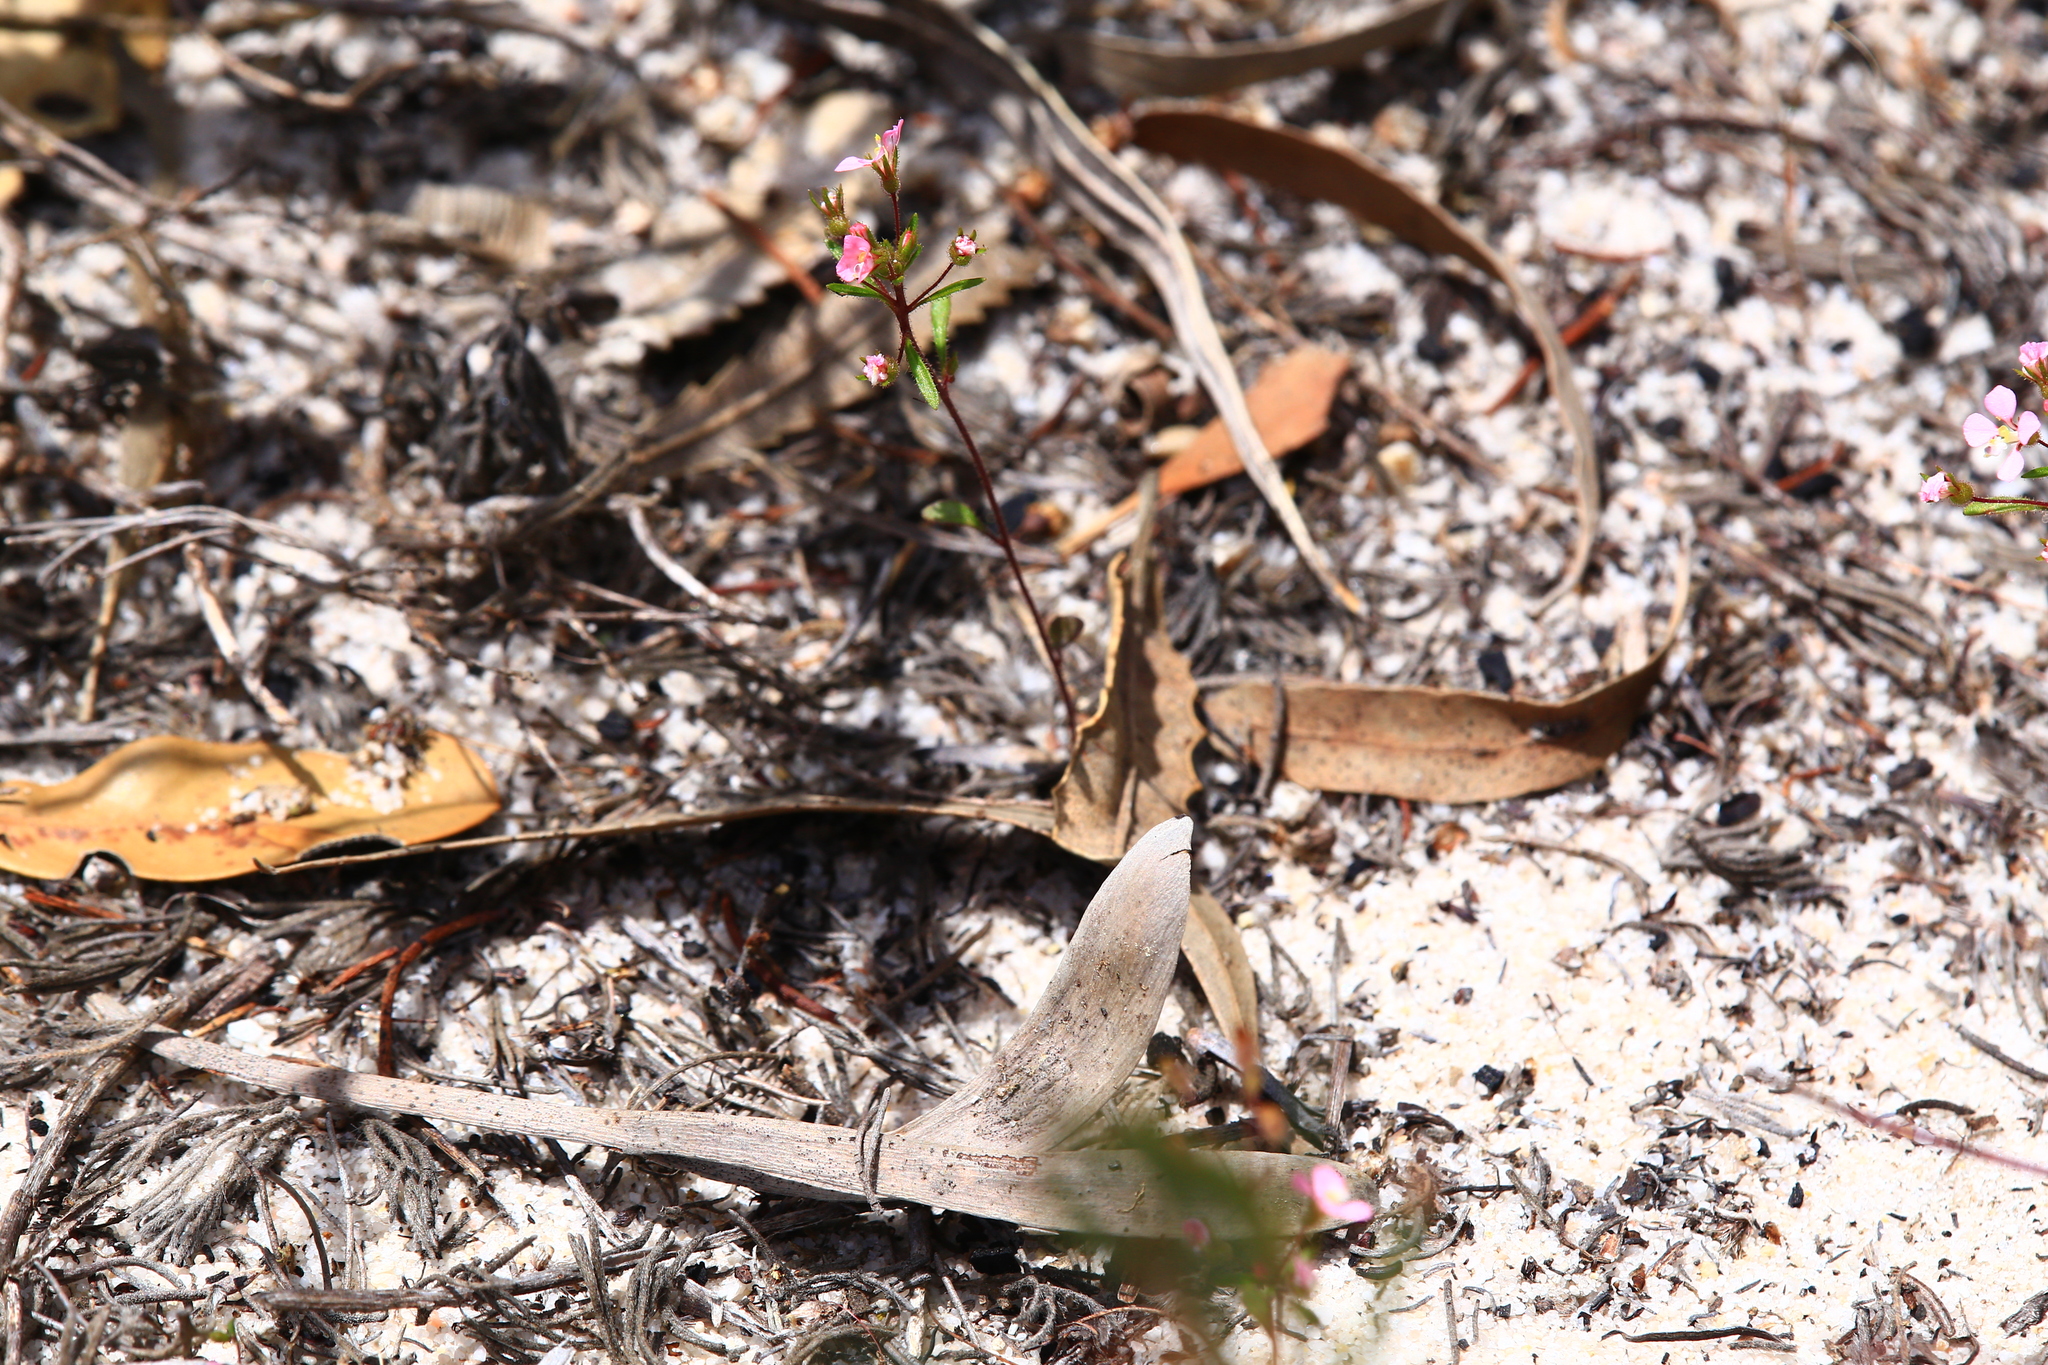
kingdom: Plantae
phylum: Tracheophyta
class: Magnoliopsida
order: Asterales
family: Stylidiaceae
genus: Levenhookia
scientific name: Levenhookia stipitata
